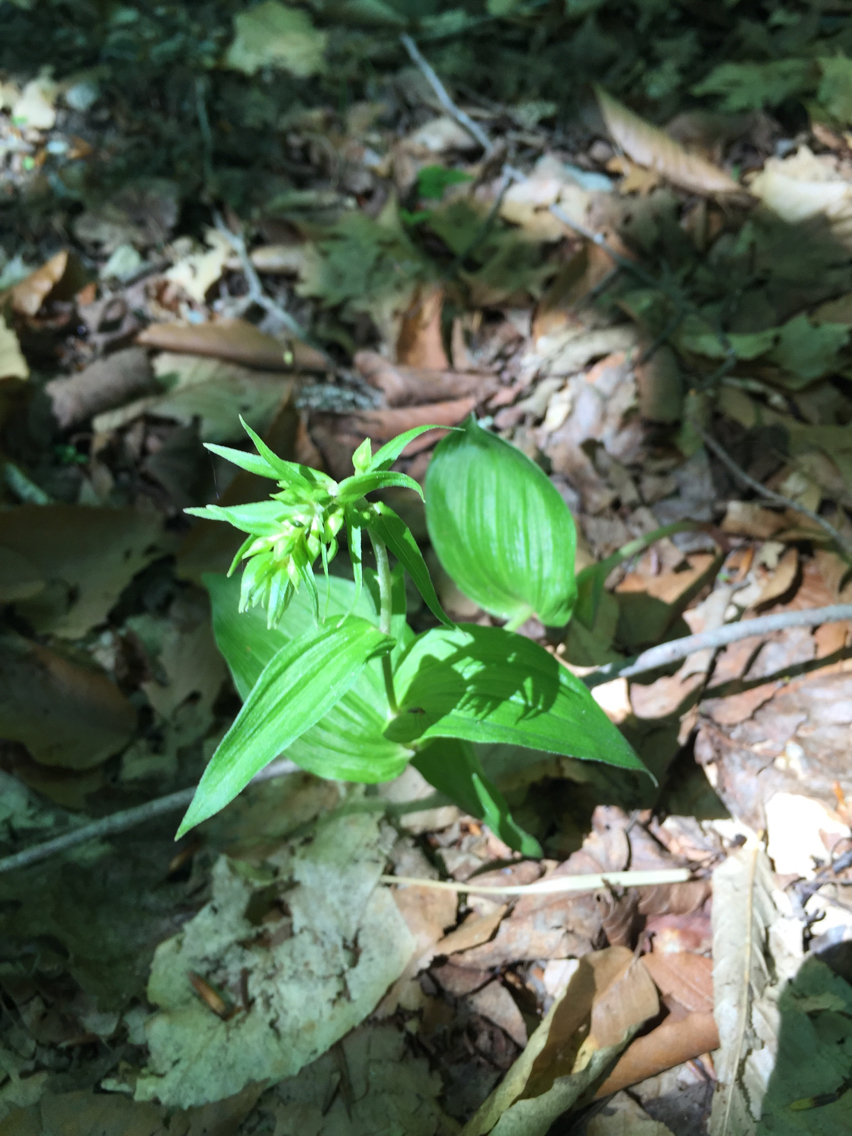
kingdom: Plantae
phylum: Tracheophyta
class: Liliopsida
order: Asparagales
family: Orchidaceae
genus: Epipactis
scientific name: Epipactis helleborine
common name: Broad-leaved helleborine
